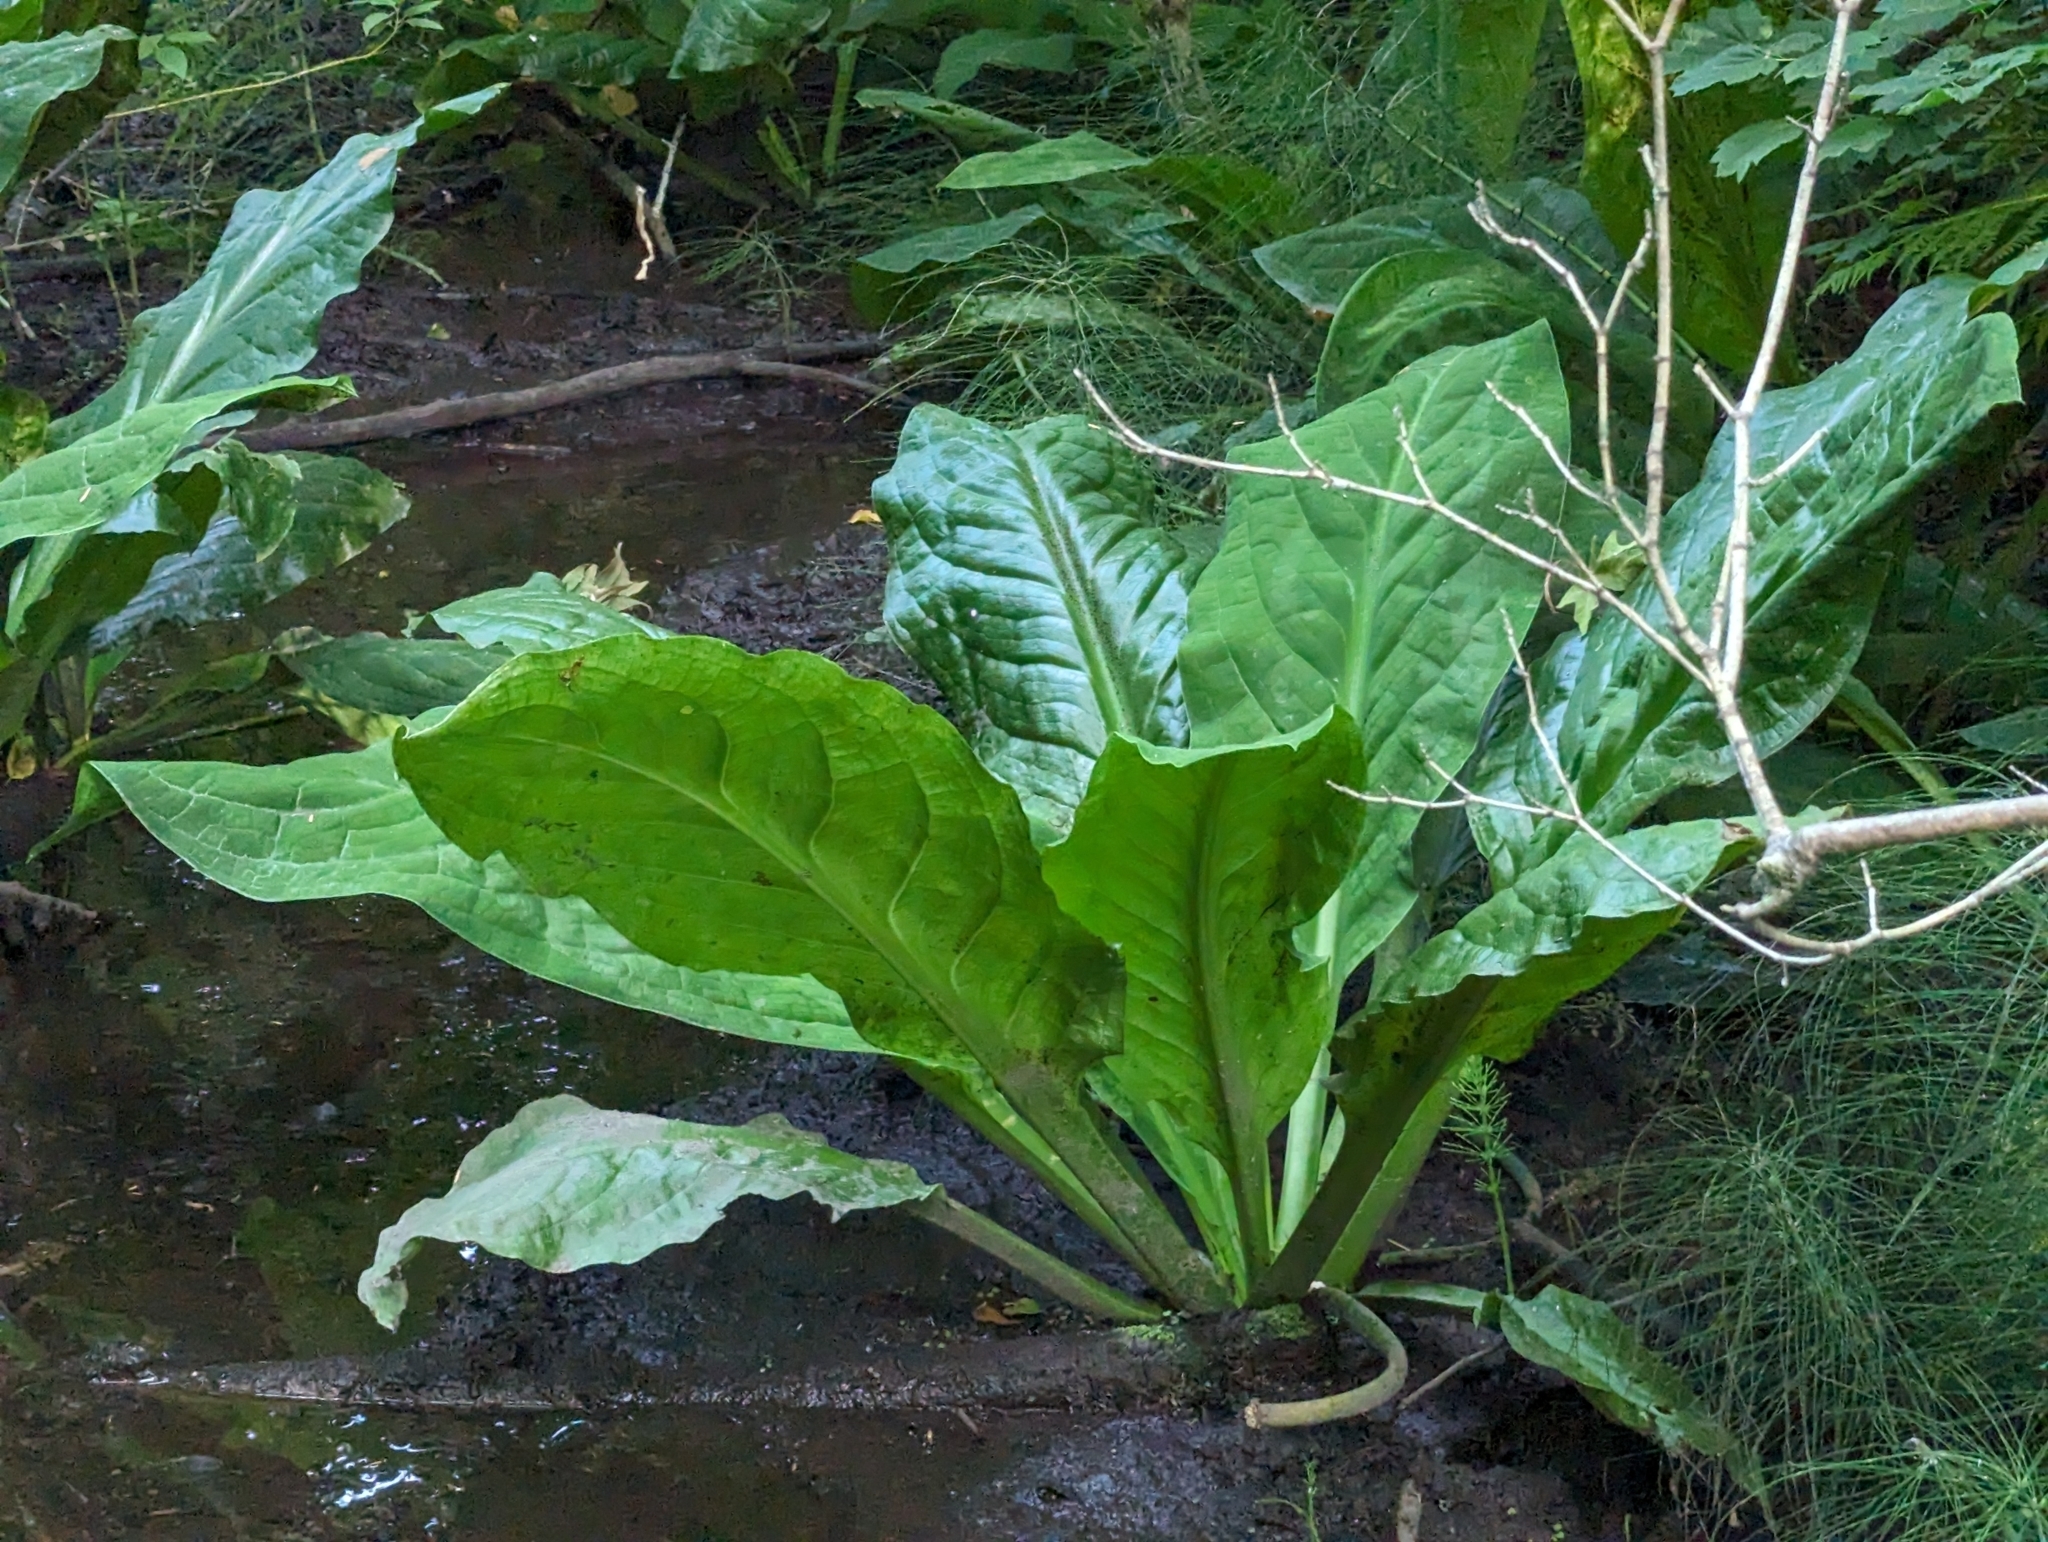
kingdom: Plantae
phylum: Tracheophyta
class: Liliopsida
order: Alismatales
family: Araceae
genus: Lysichiton
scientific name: Lysichiton americanus
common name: American skunk cabbage
